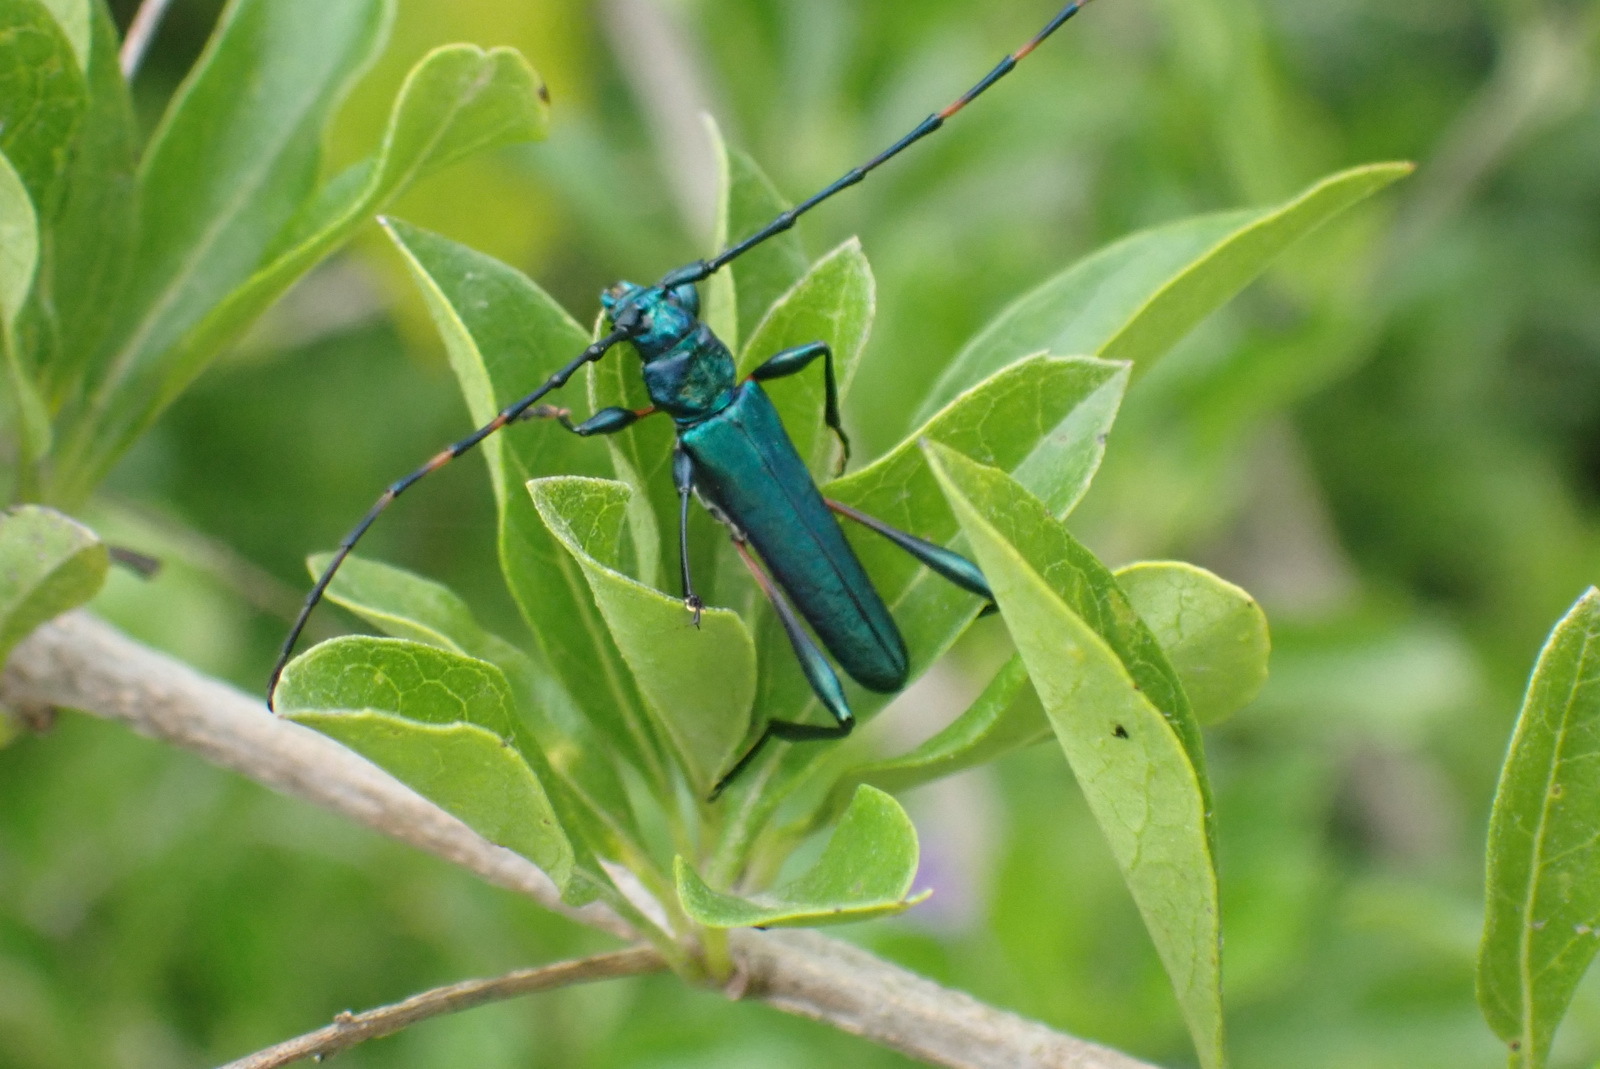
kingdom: Animalia
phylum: Arthropoda
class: Insecta
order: Coleoptera
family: Cerambycidae
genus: Litopus
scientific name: Litopus latipes
